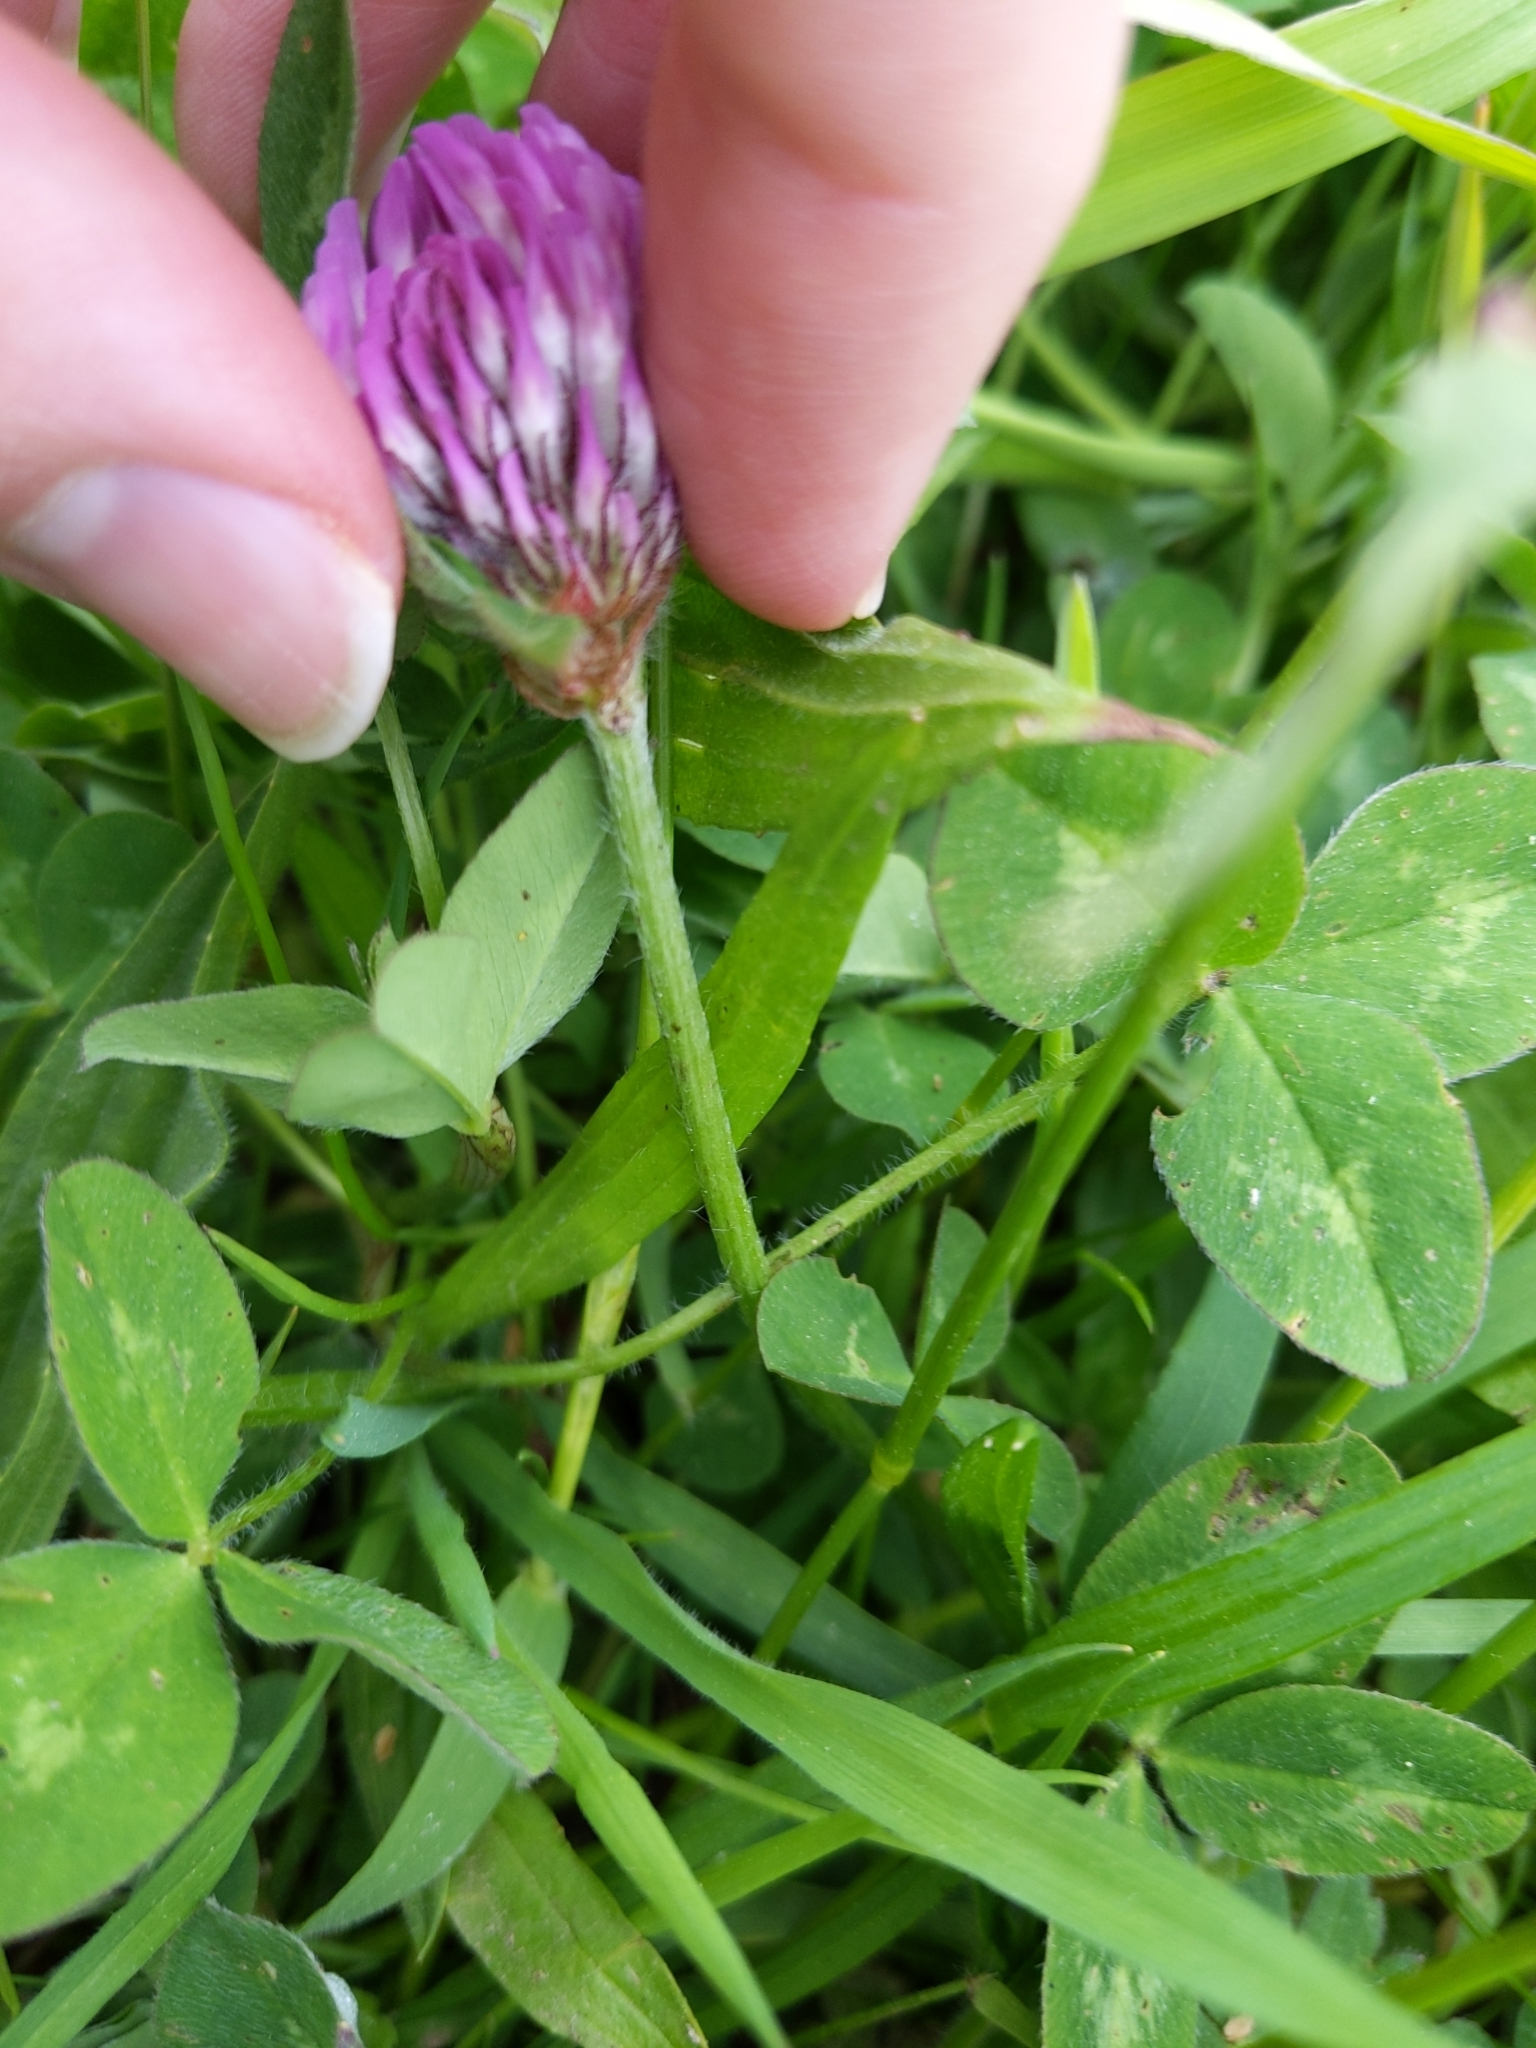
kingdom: Plantae
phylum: Tracheophyta
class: Magnoliopsida
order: Fabales
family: Fabaceae
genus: Trifolium
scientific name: Trifolium pratense
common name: Red clover
